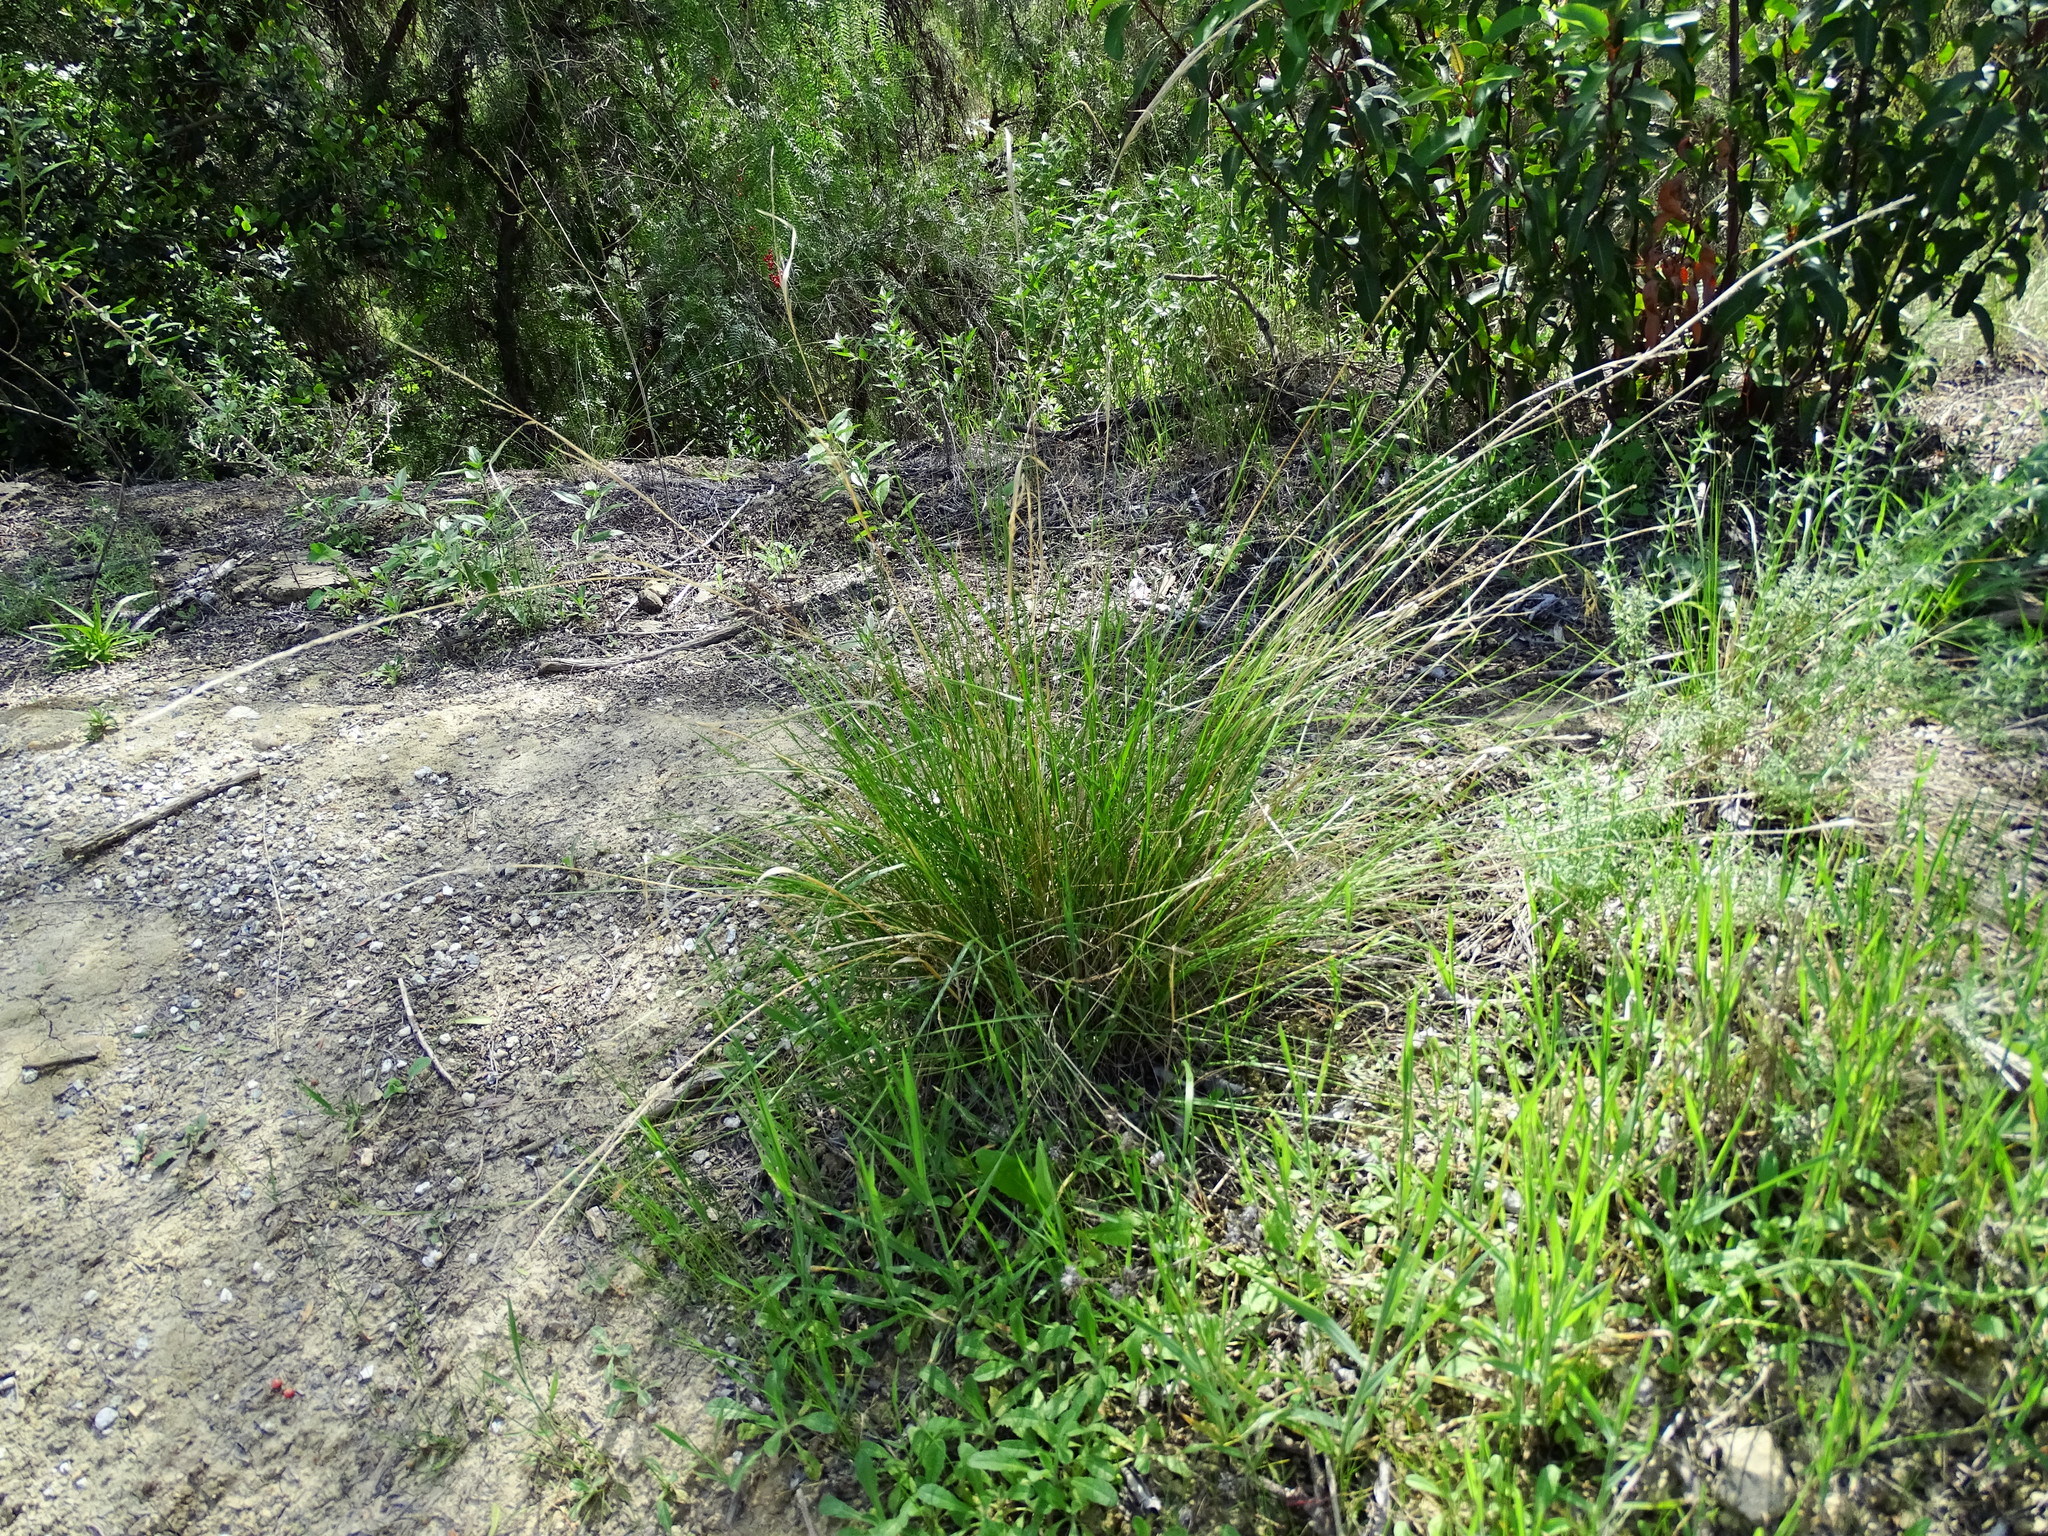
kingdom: Plantae
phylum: Tracheophyta
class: Liliopsida
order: Poales
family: Poaceae
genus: Nassella
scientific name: Nassella lepida
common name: Foothill needlegrass
